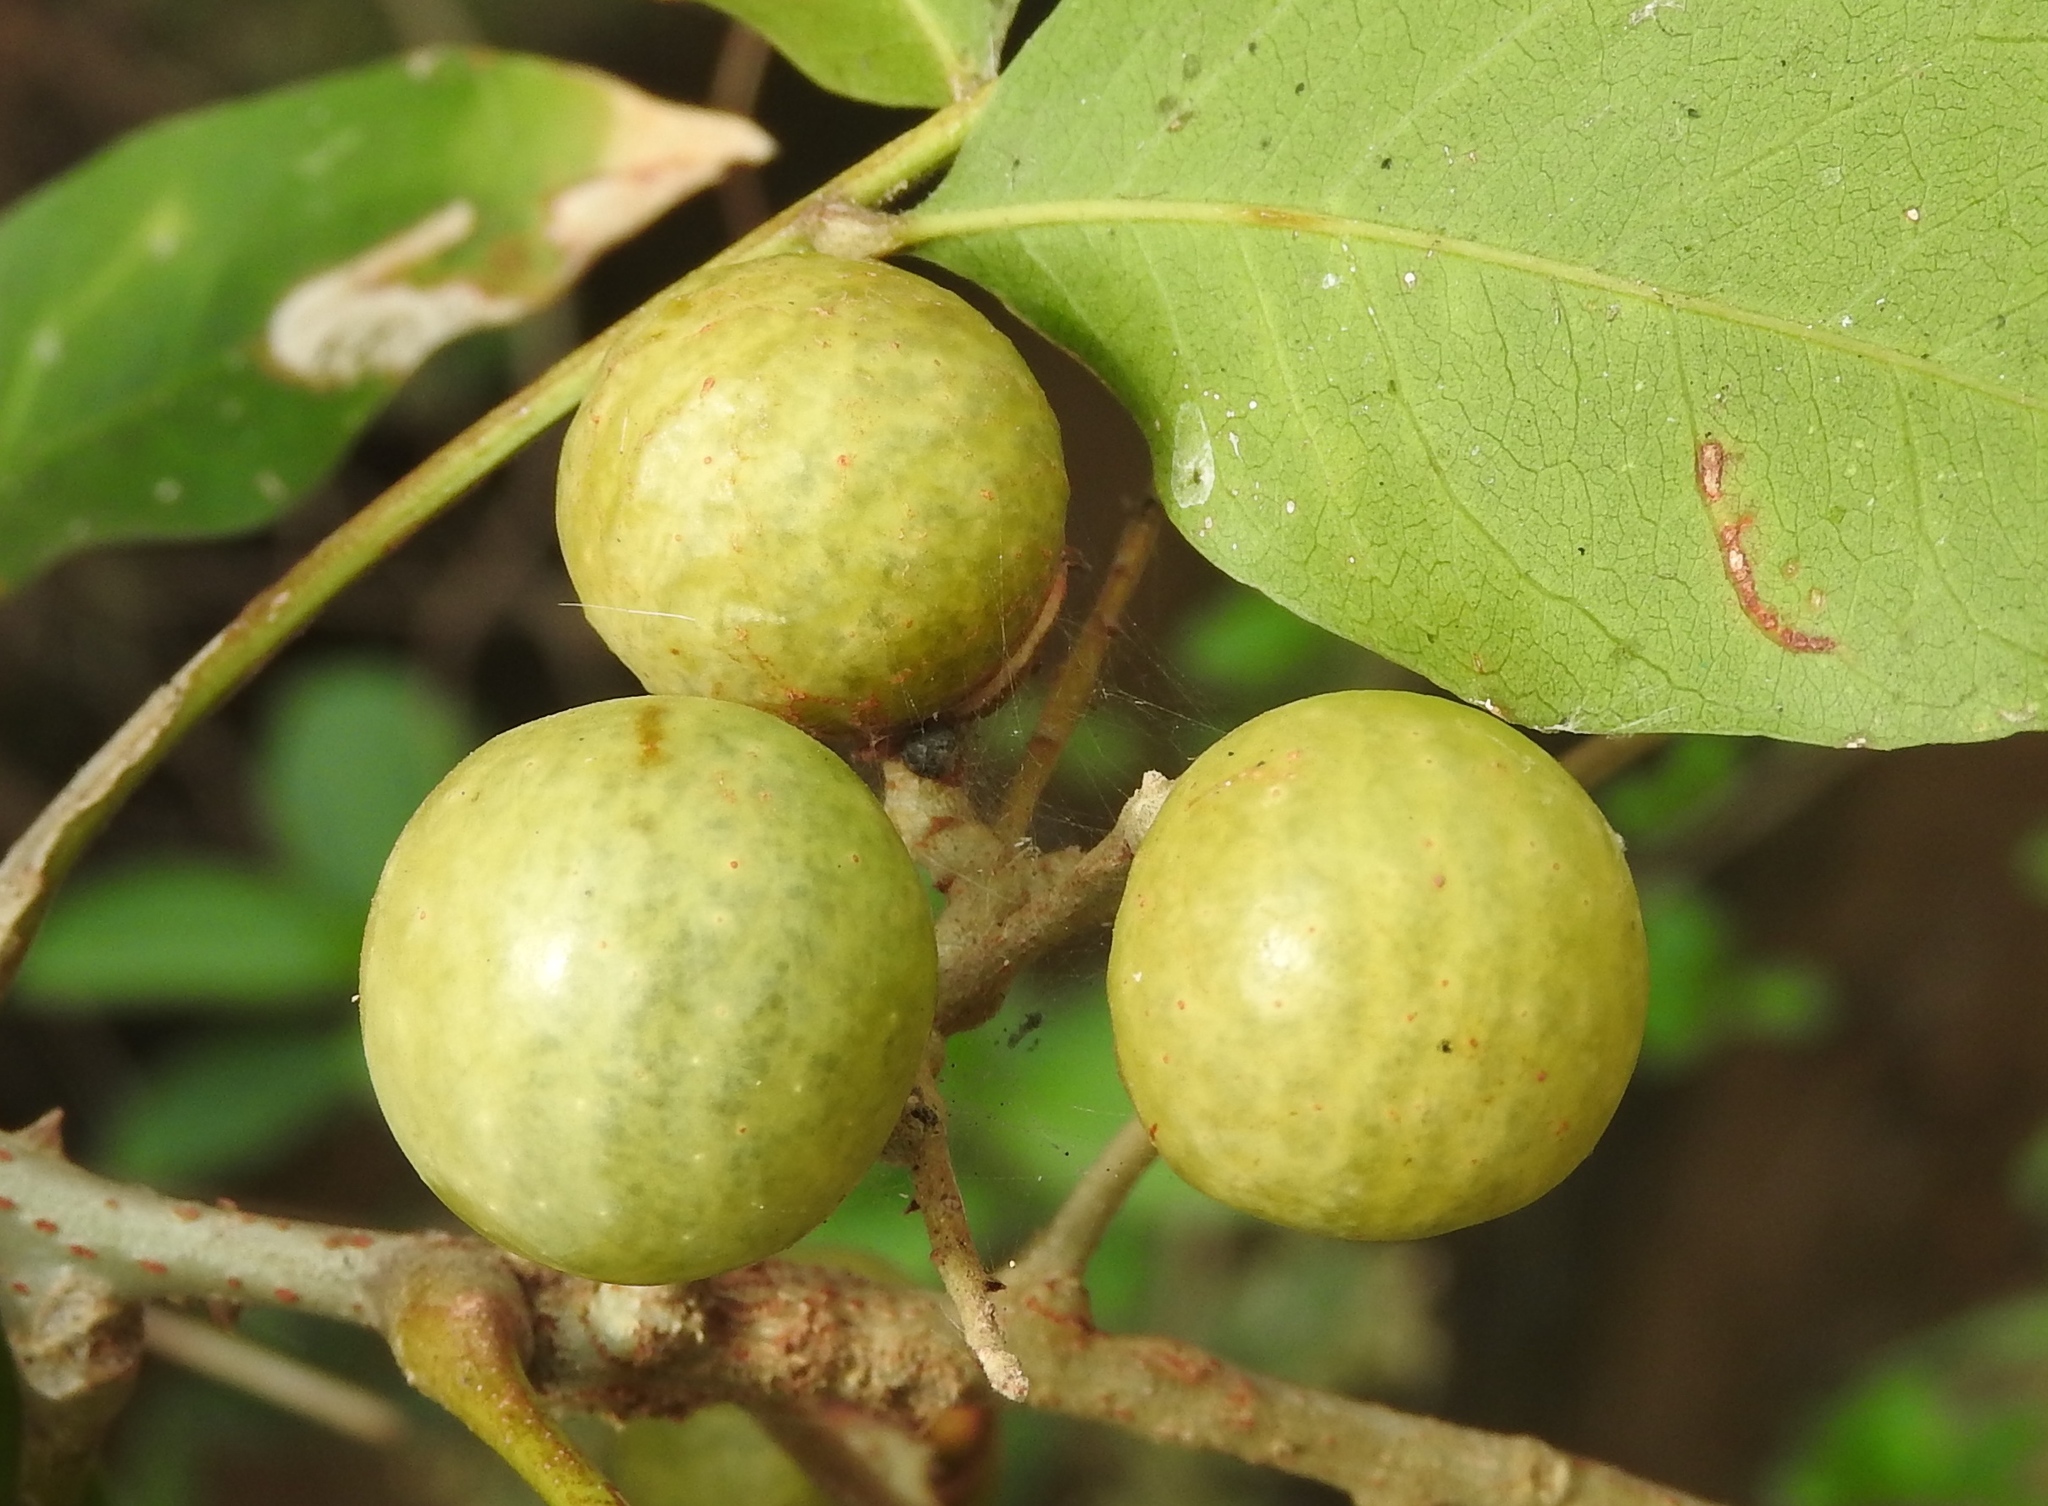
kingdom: Plantae
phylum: Tracheophyta
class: Magnoliopsida
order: Sapindales
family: Sapindaceae
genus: Sapindus
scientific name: Sapindus drummondii
